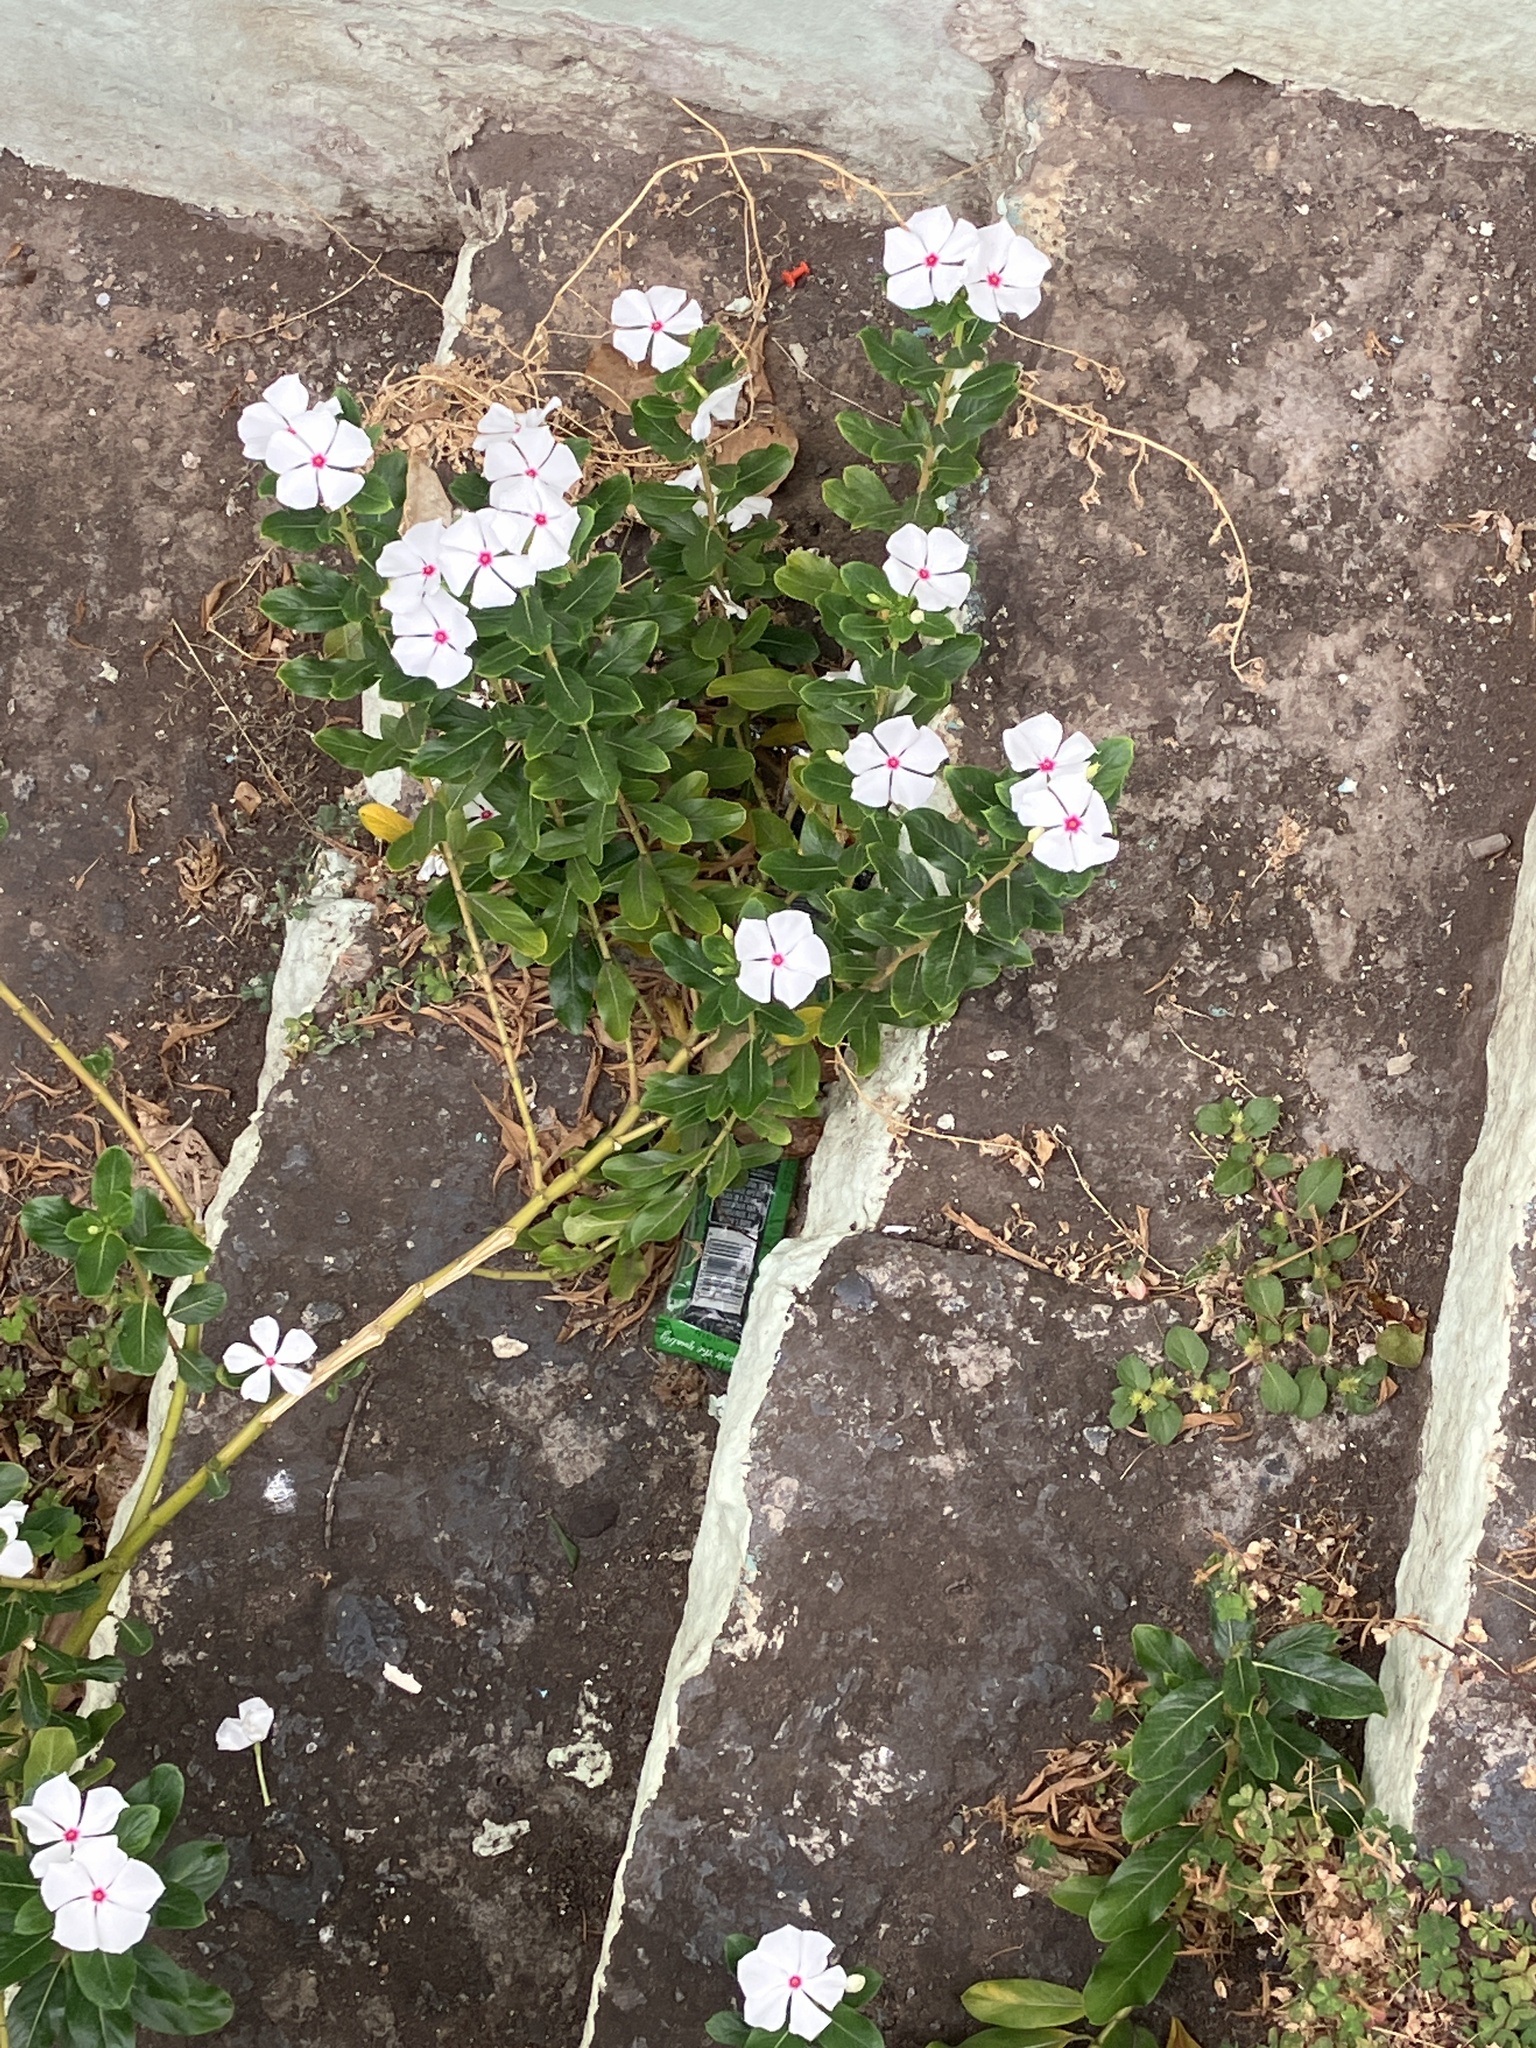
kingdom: Plantae
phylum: Tracheophyta
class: Magnoliopsida
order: Gentianales
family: Apocynaceae
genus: Catharanthus
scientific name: Catharanthus roseus
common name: Madagascar periwinkle
